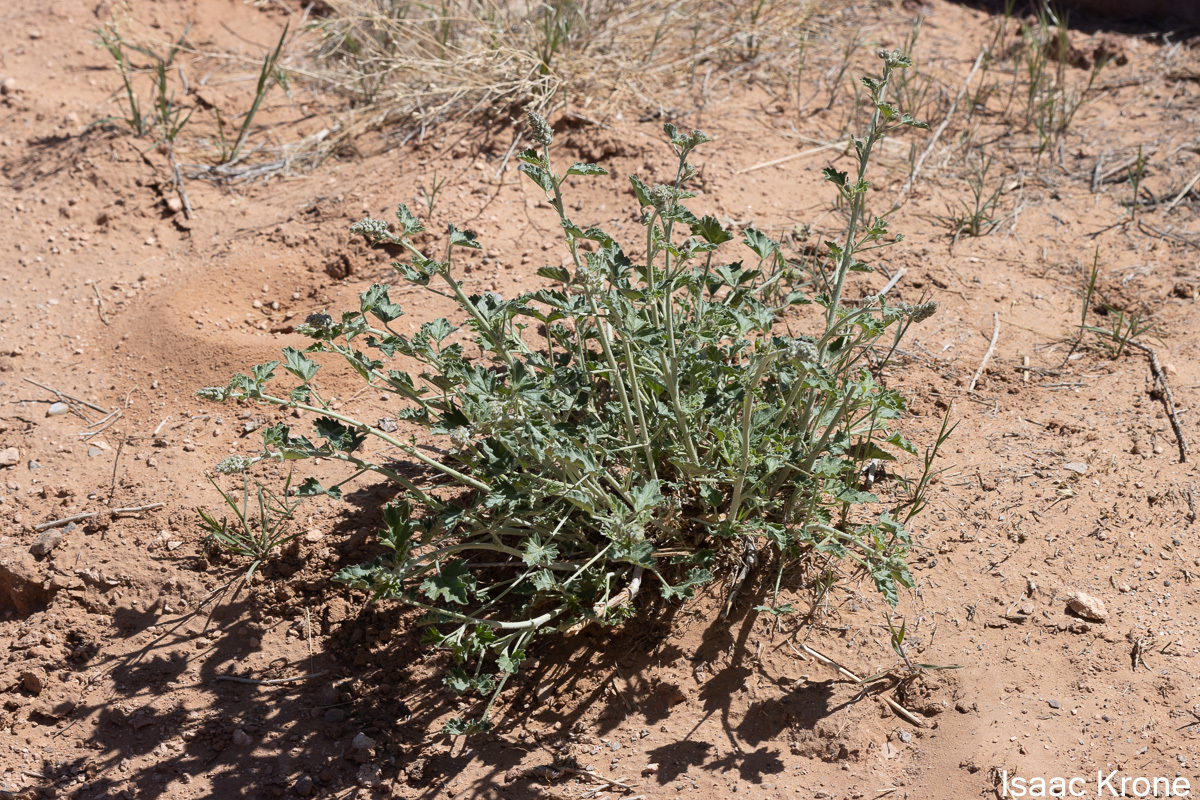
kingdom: Plantae
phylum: Tracheophyta
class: Magnoliopsida
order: Malvales
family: Malvaceae
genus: Sphaeralcea
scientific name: Sphaeralcea parvifolia
